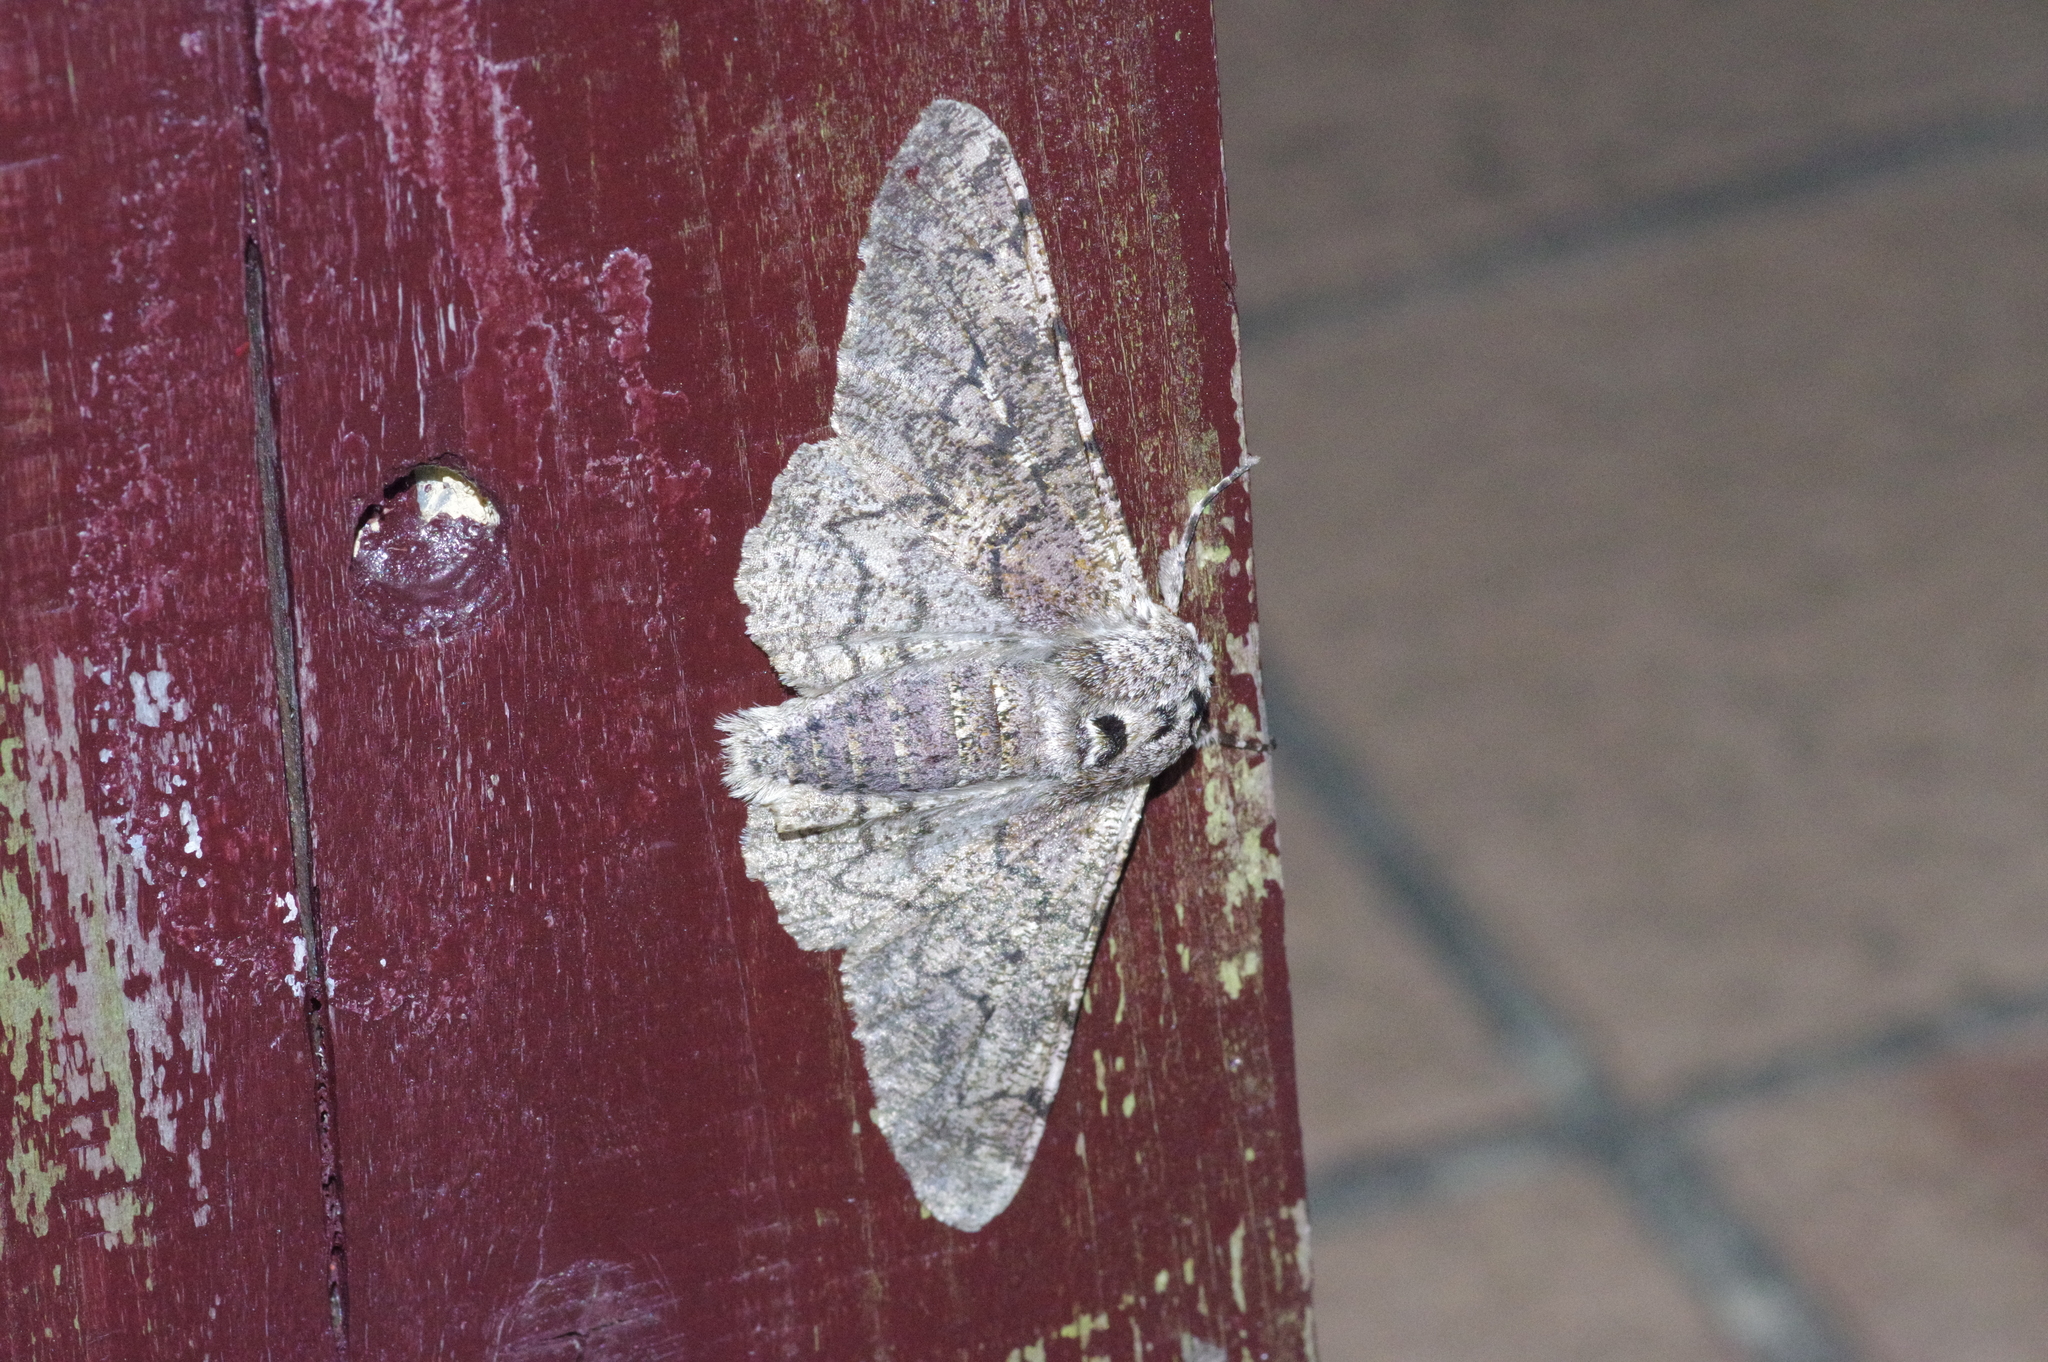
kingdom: Animalia
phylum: Arthropoda
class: Insecta
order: Lepidoptera
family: Geometridae
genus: Biston
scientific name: Biston robustum
